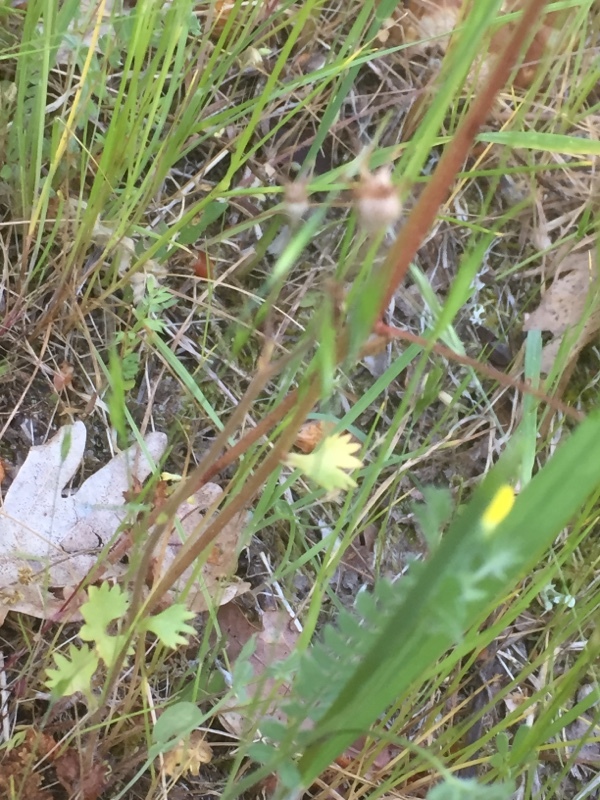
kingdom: Plantae
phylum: Tracheophyta
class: Magnoliopsida
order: Saxifragales
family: Saxifragaceae
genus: Saxifraga
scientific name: Saxifraga granulata
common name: Meadow saxifrage
